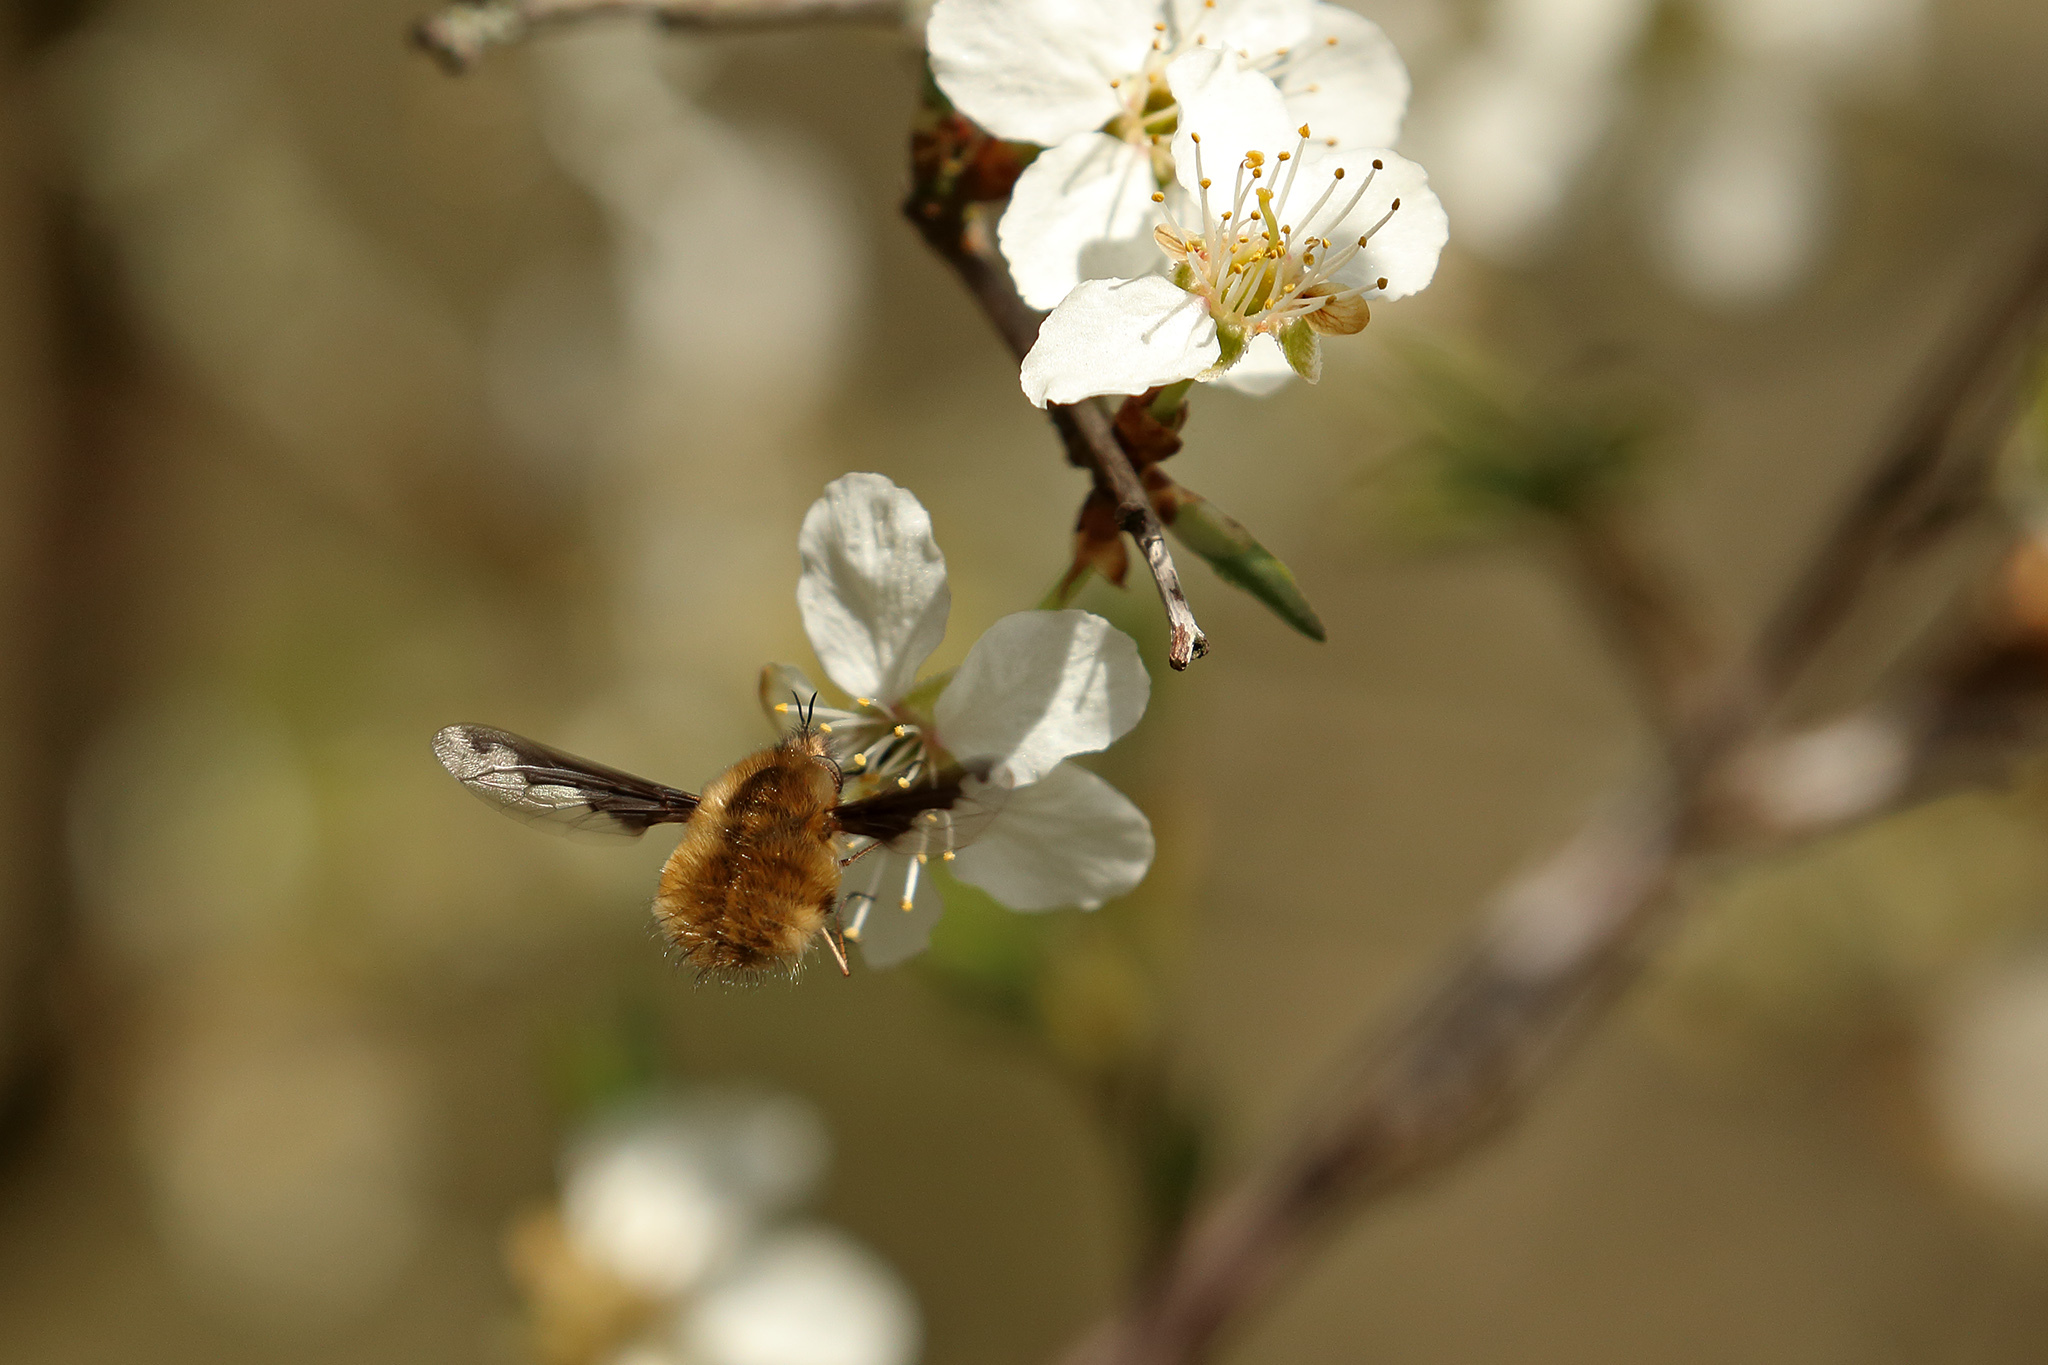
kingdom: Animalia
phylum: Arthropoda
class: Insecta
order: Diptera
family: Bombyliidae
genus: Bombylius
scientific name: Bombylius major
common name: Bee fly
